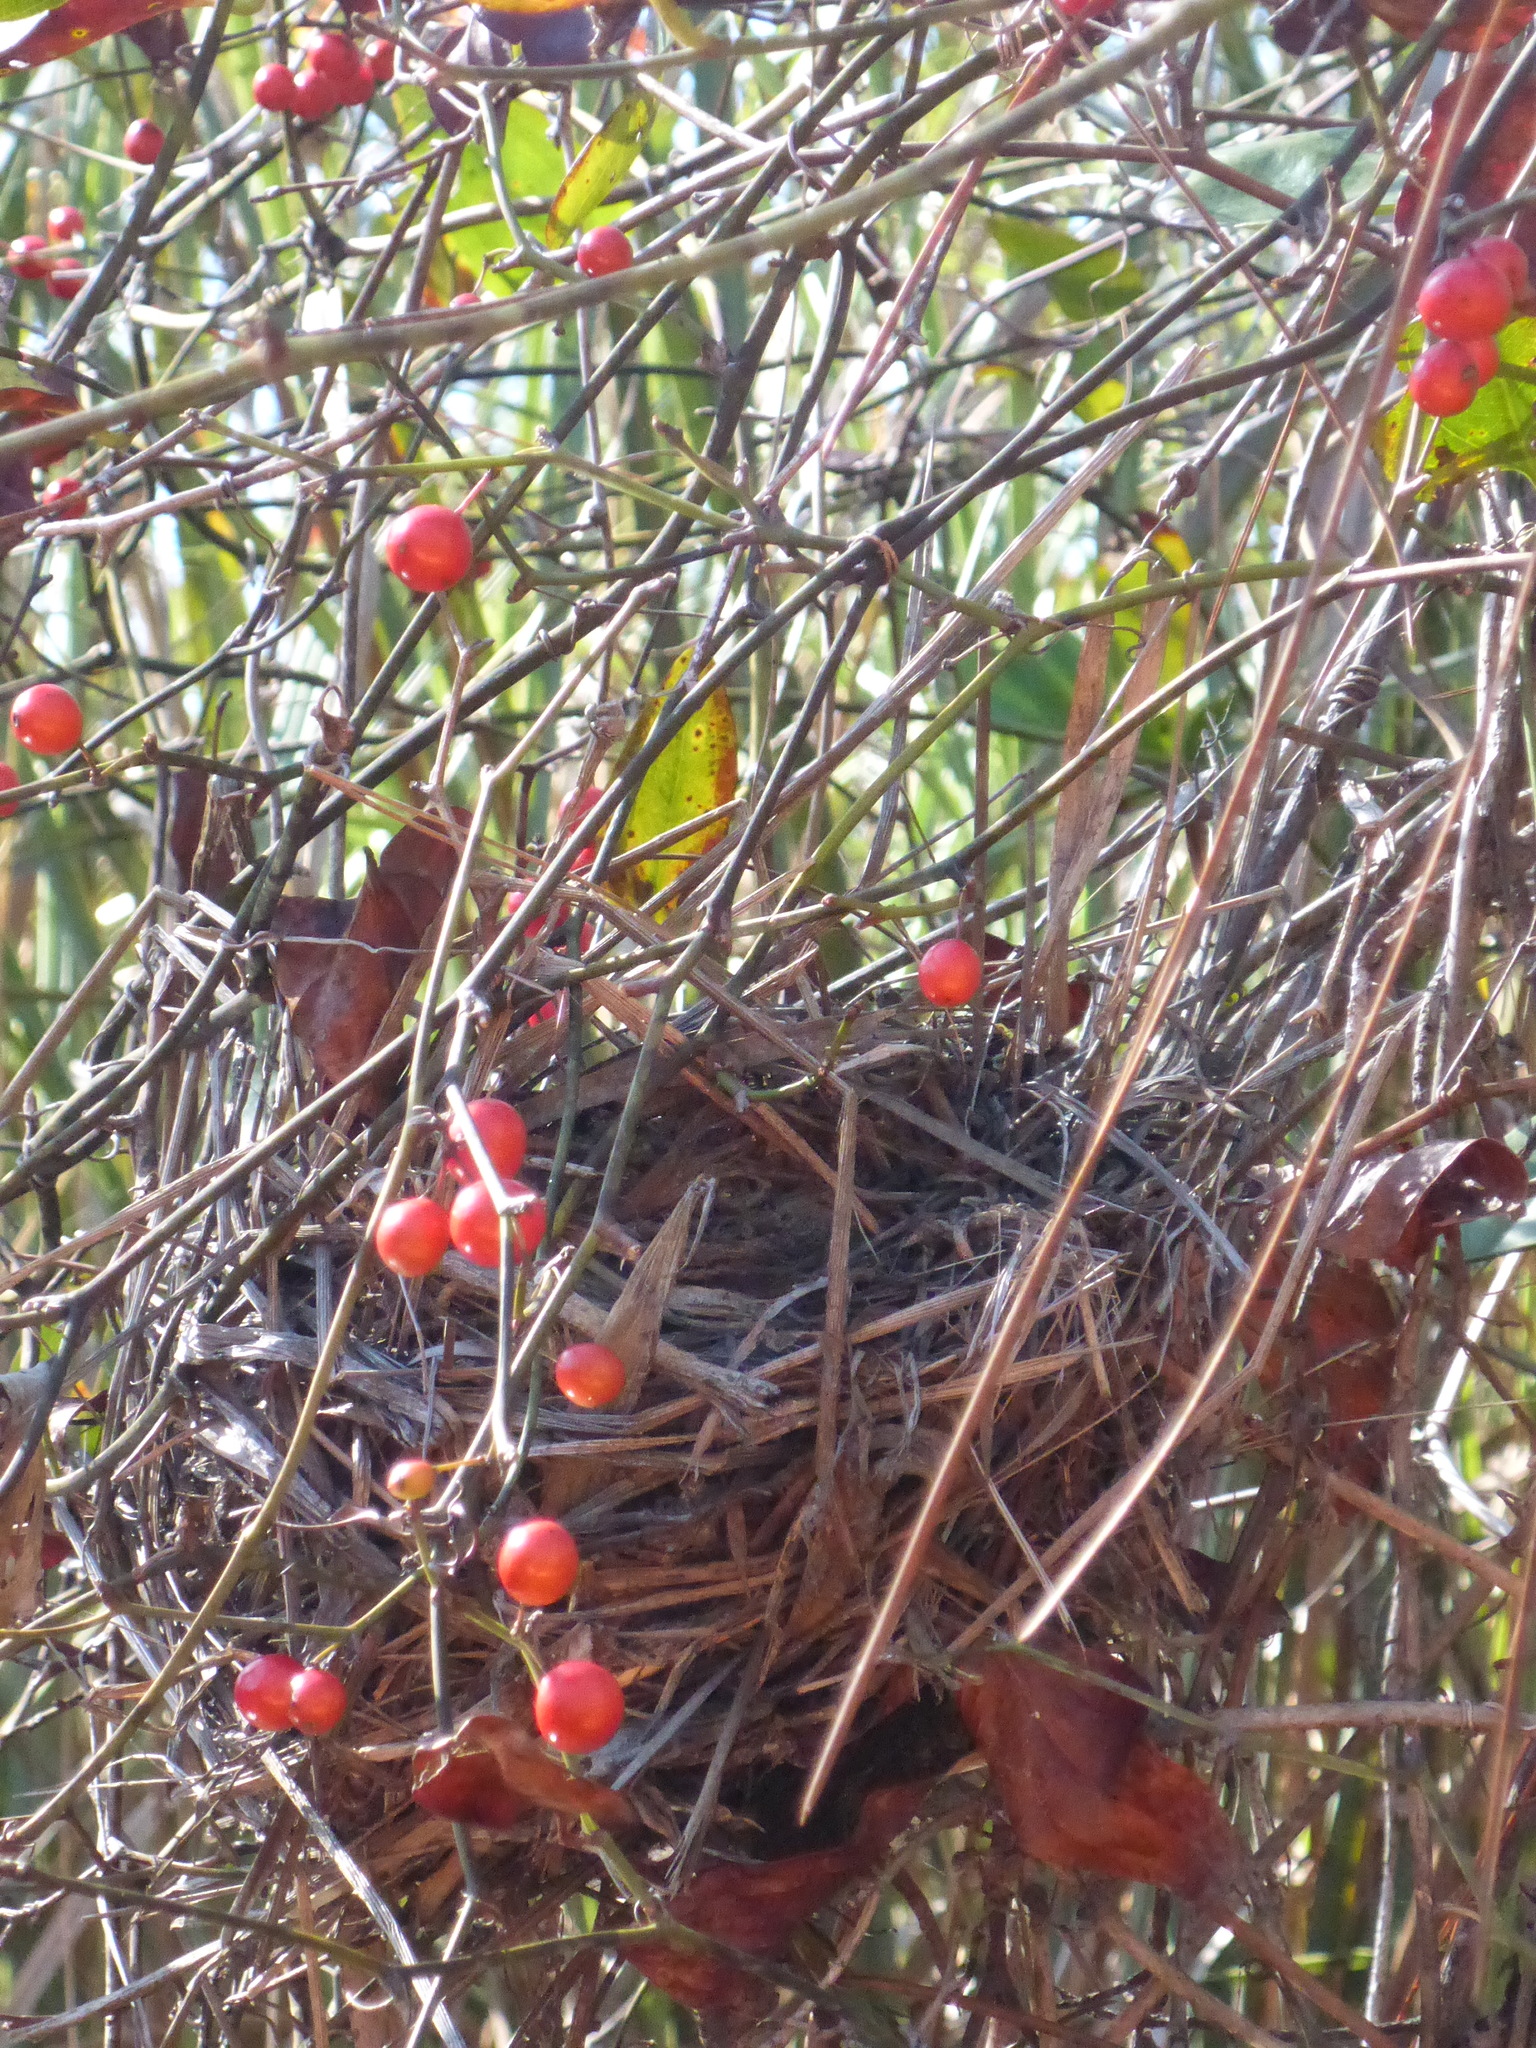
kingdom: Plantae
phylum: Tracheophyta
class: Liliopsida
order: Liliales
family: Smilacaceae
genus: Smilax
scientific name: Smilax walteri
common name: Coral greenbrier
